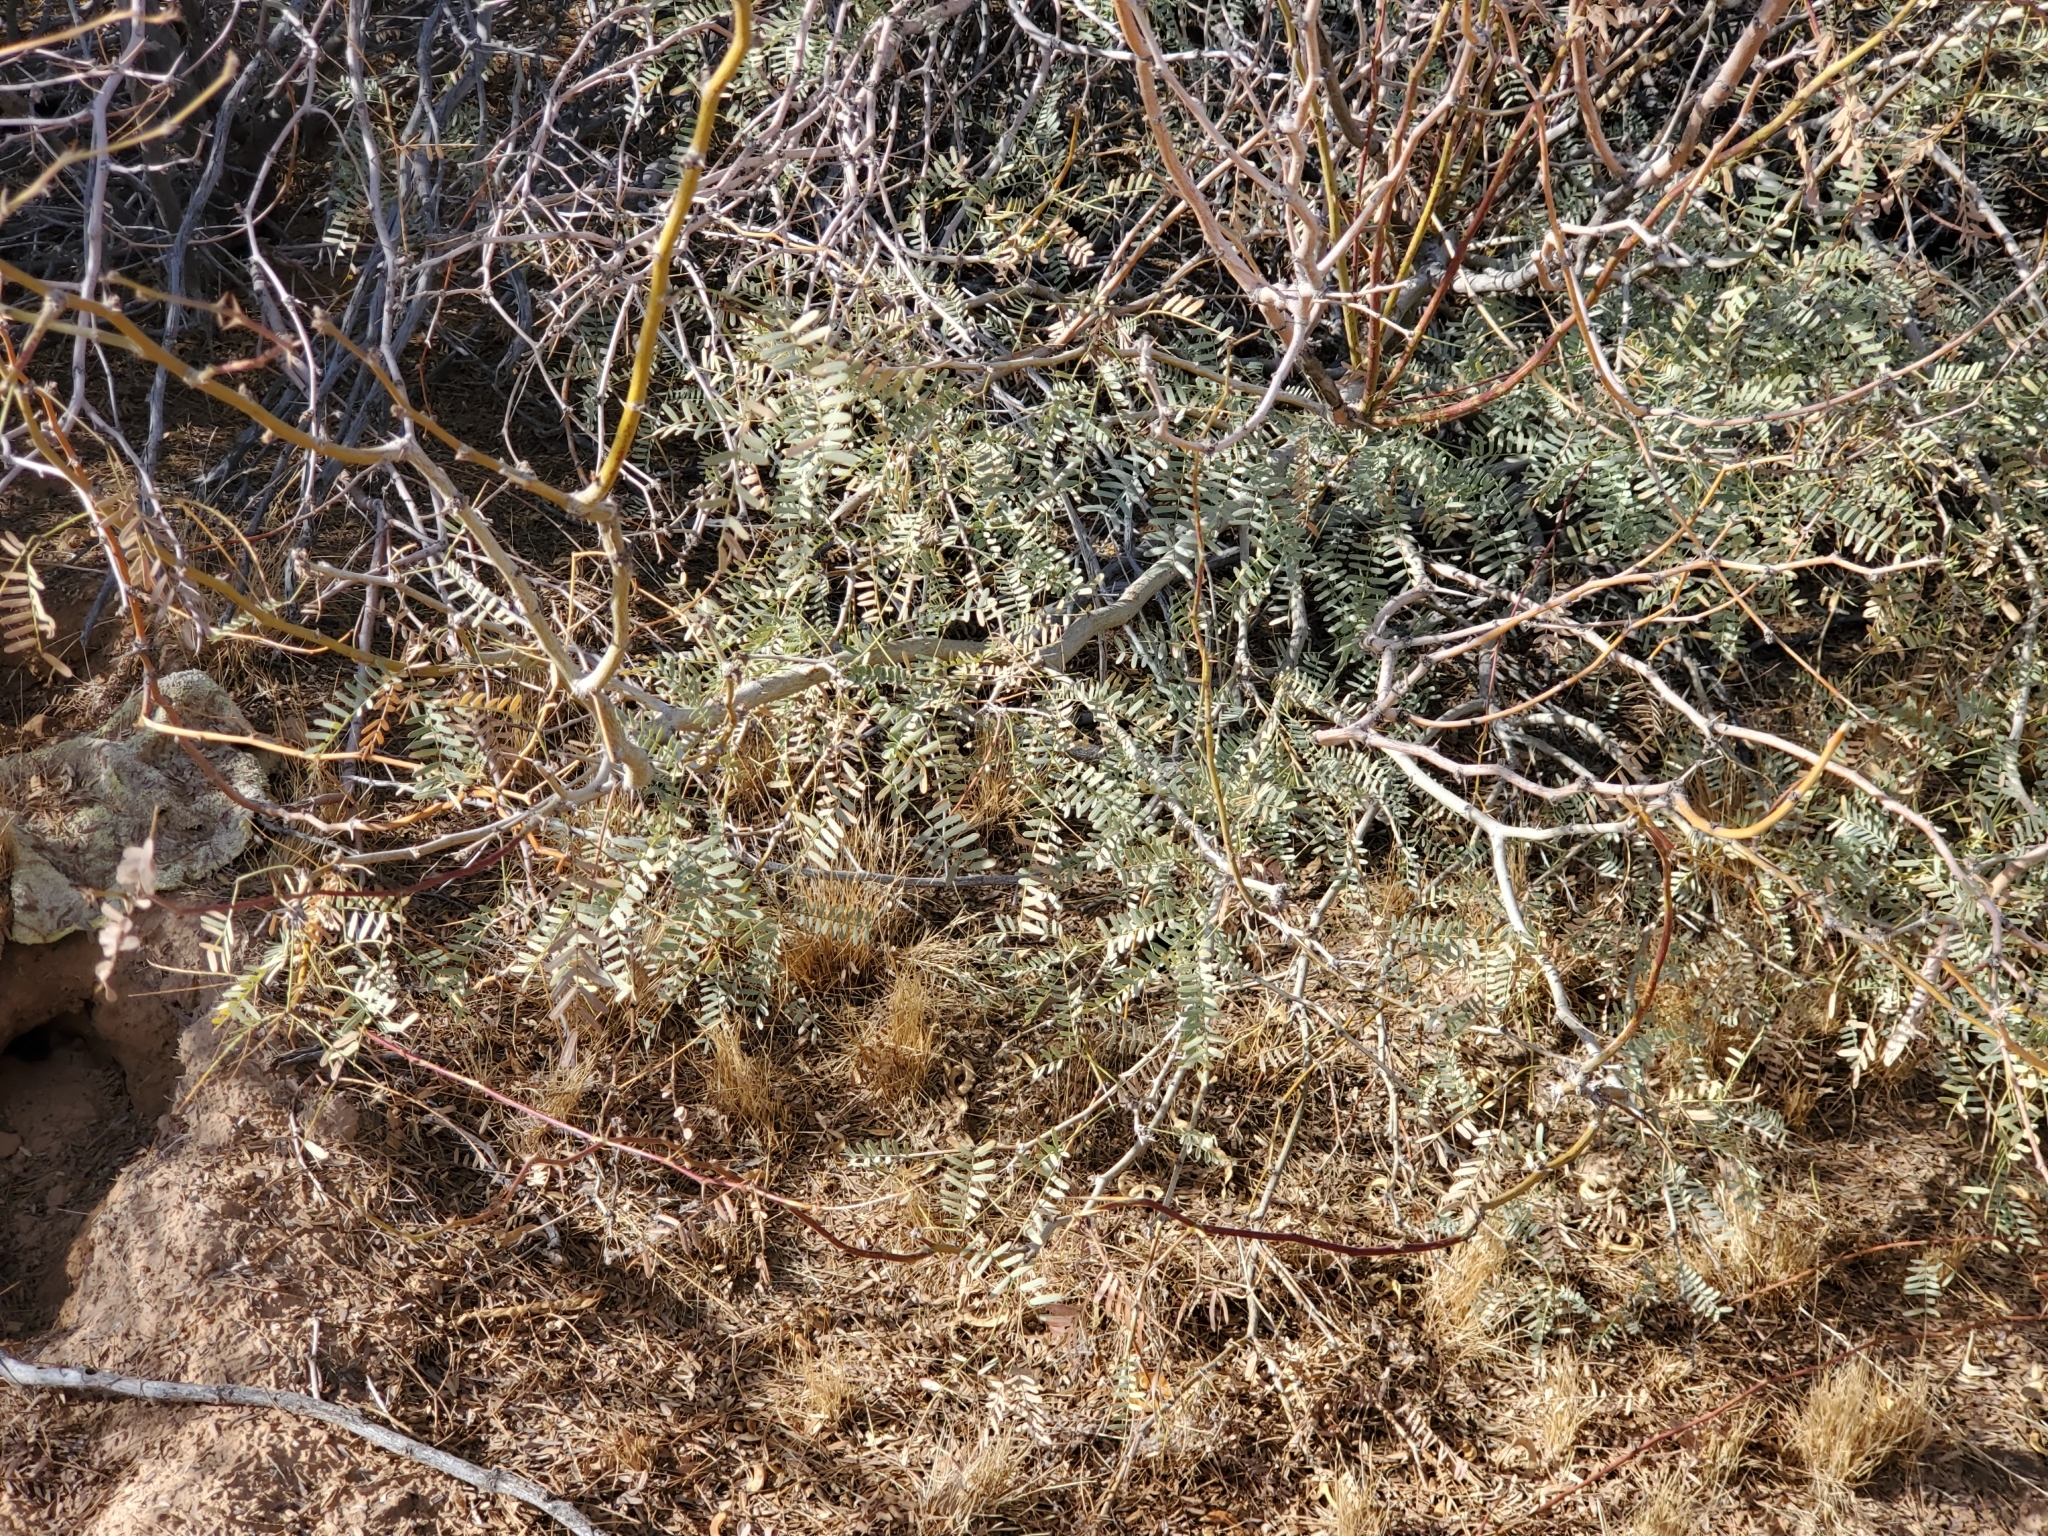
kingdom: Plantae
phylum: Tracheophyta
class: Magnoliopsida
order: Fabales
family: Fabaceae
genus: Prosopis
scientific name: Prosopis pubescens
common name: Screw-bean
